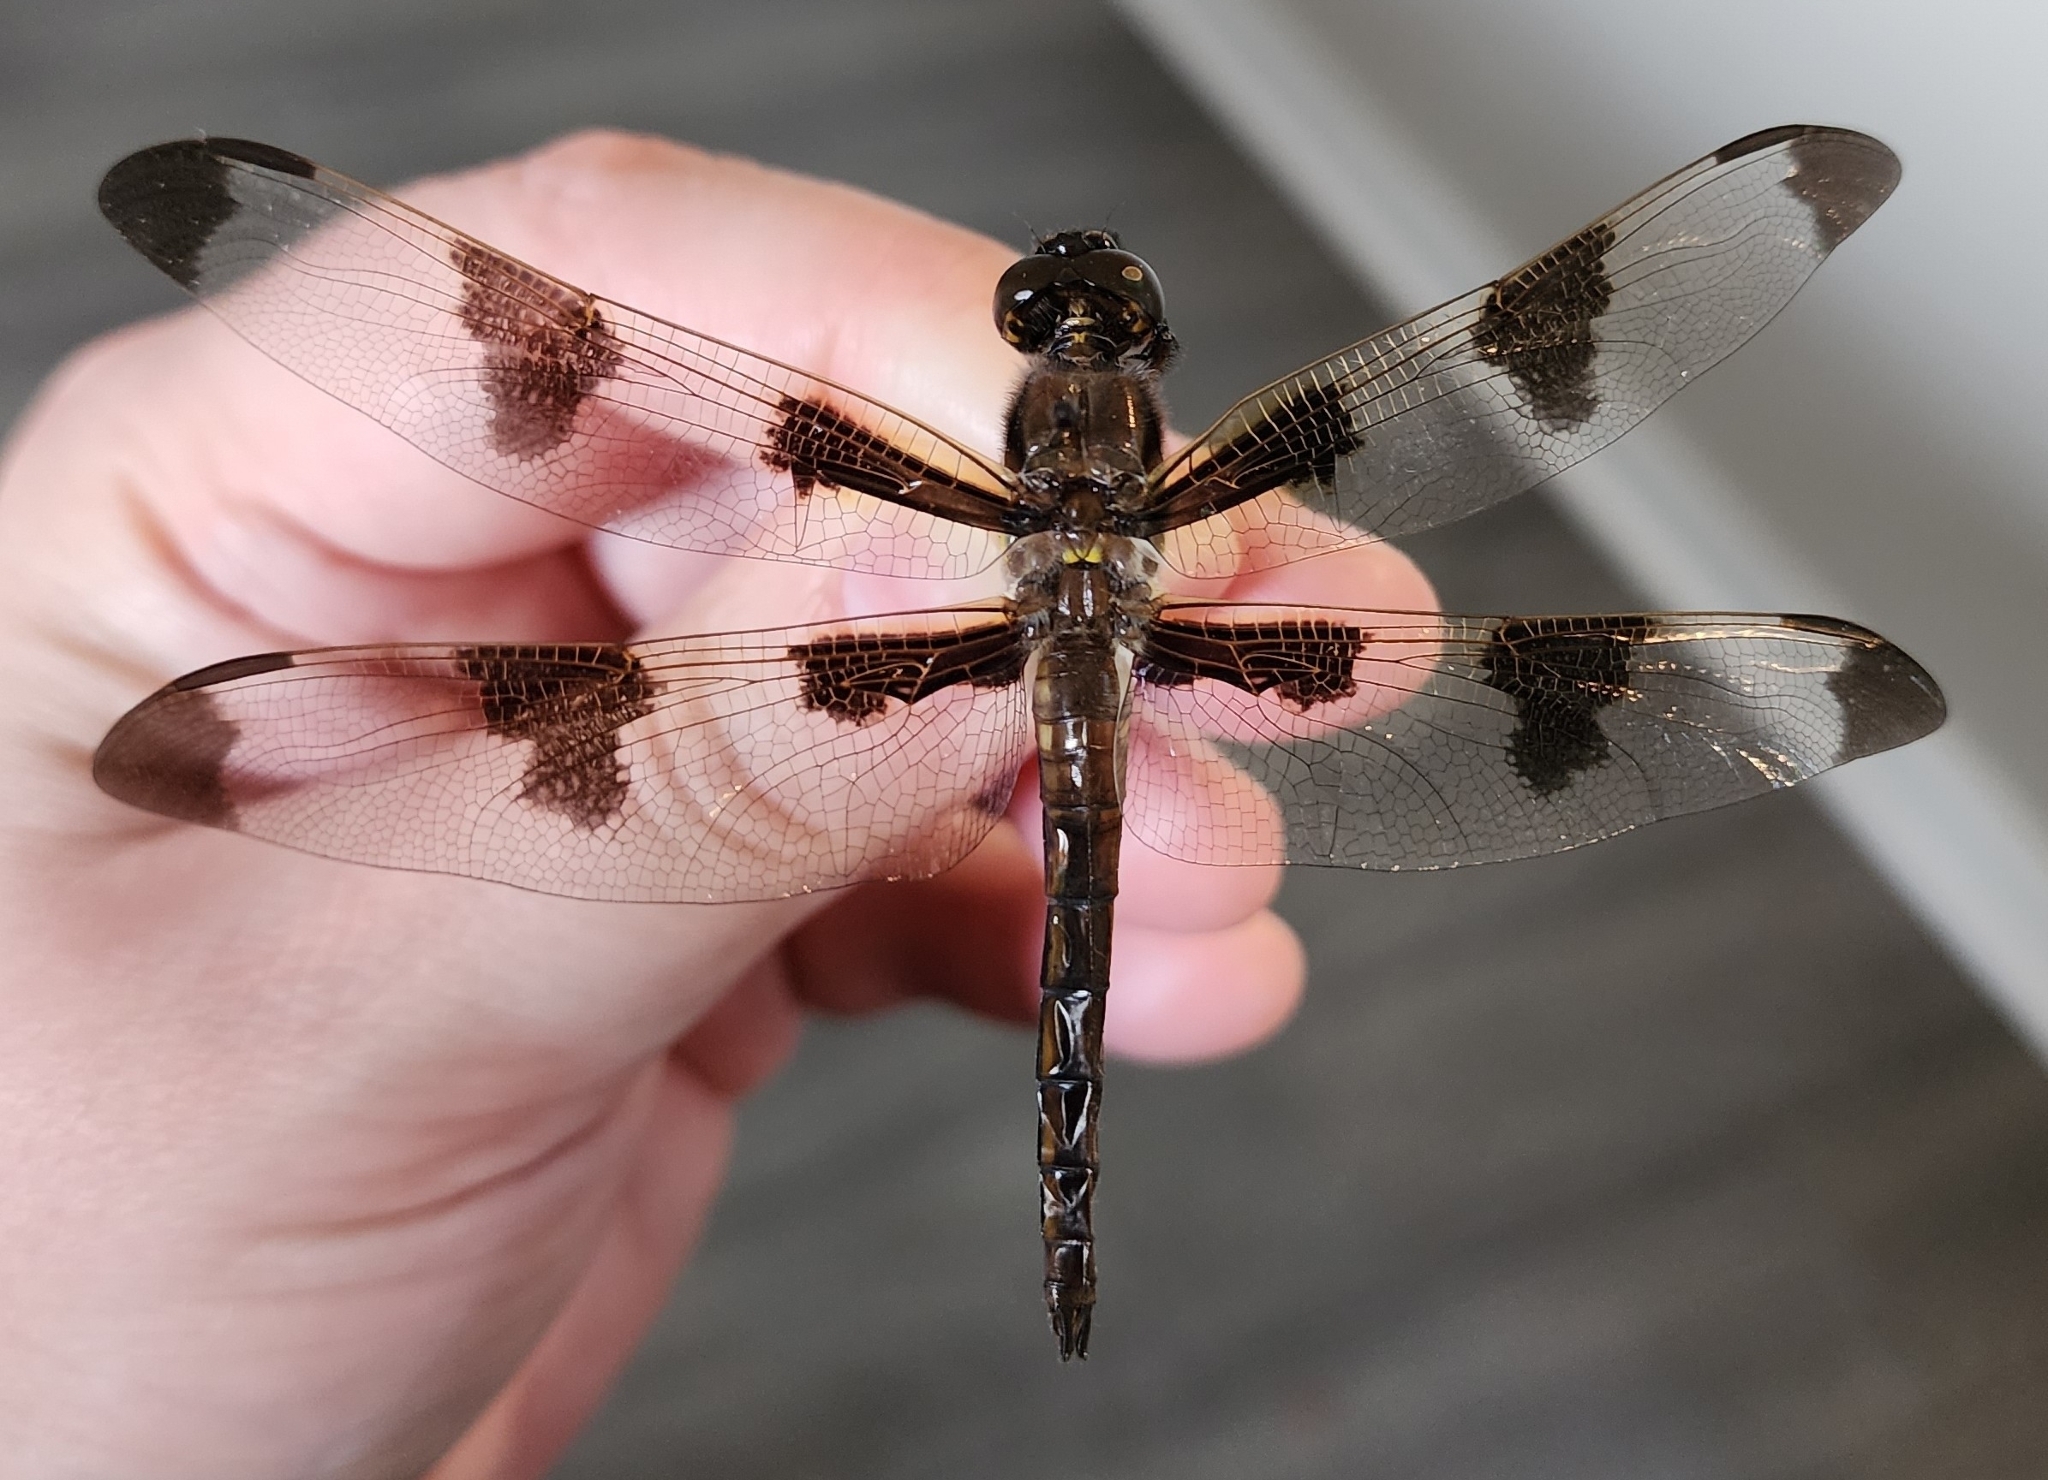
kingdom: Animalia
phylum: Arthropoda
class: Insecta
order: Odonata
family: Libellulidae
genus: Libellula
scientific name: Libellula pulchella
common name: Twelve-spotted skimmer
